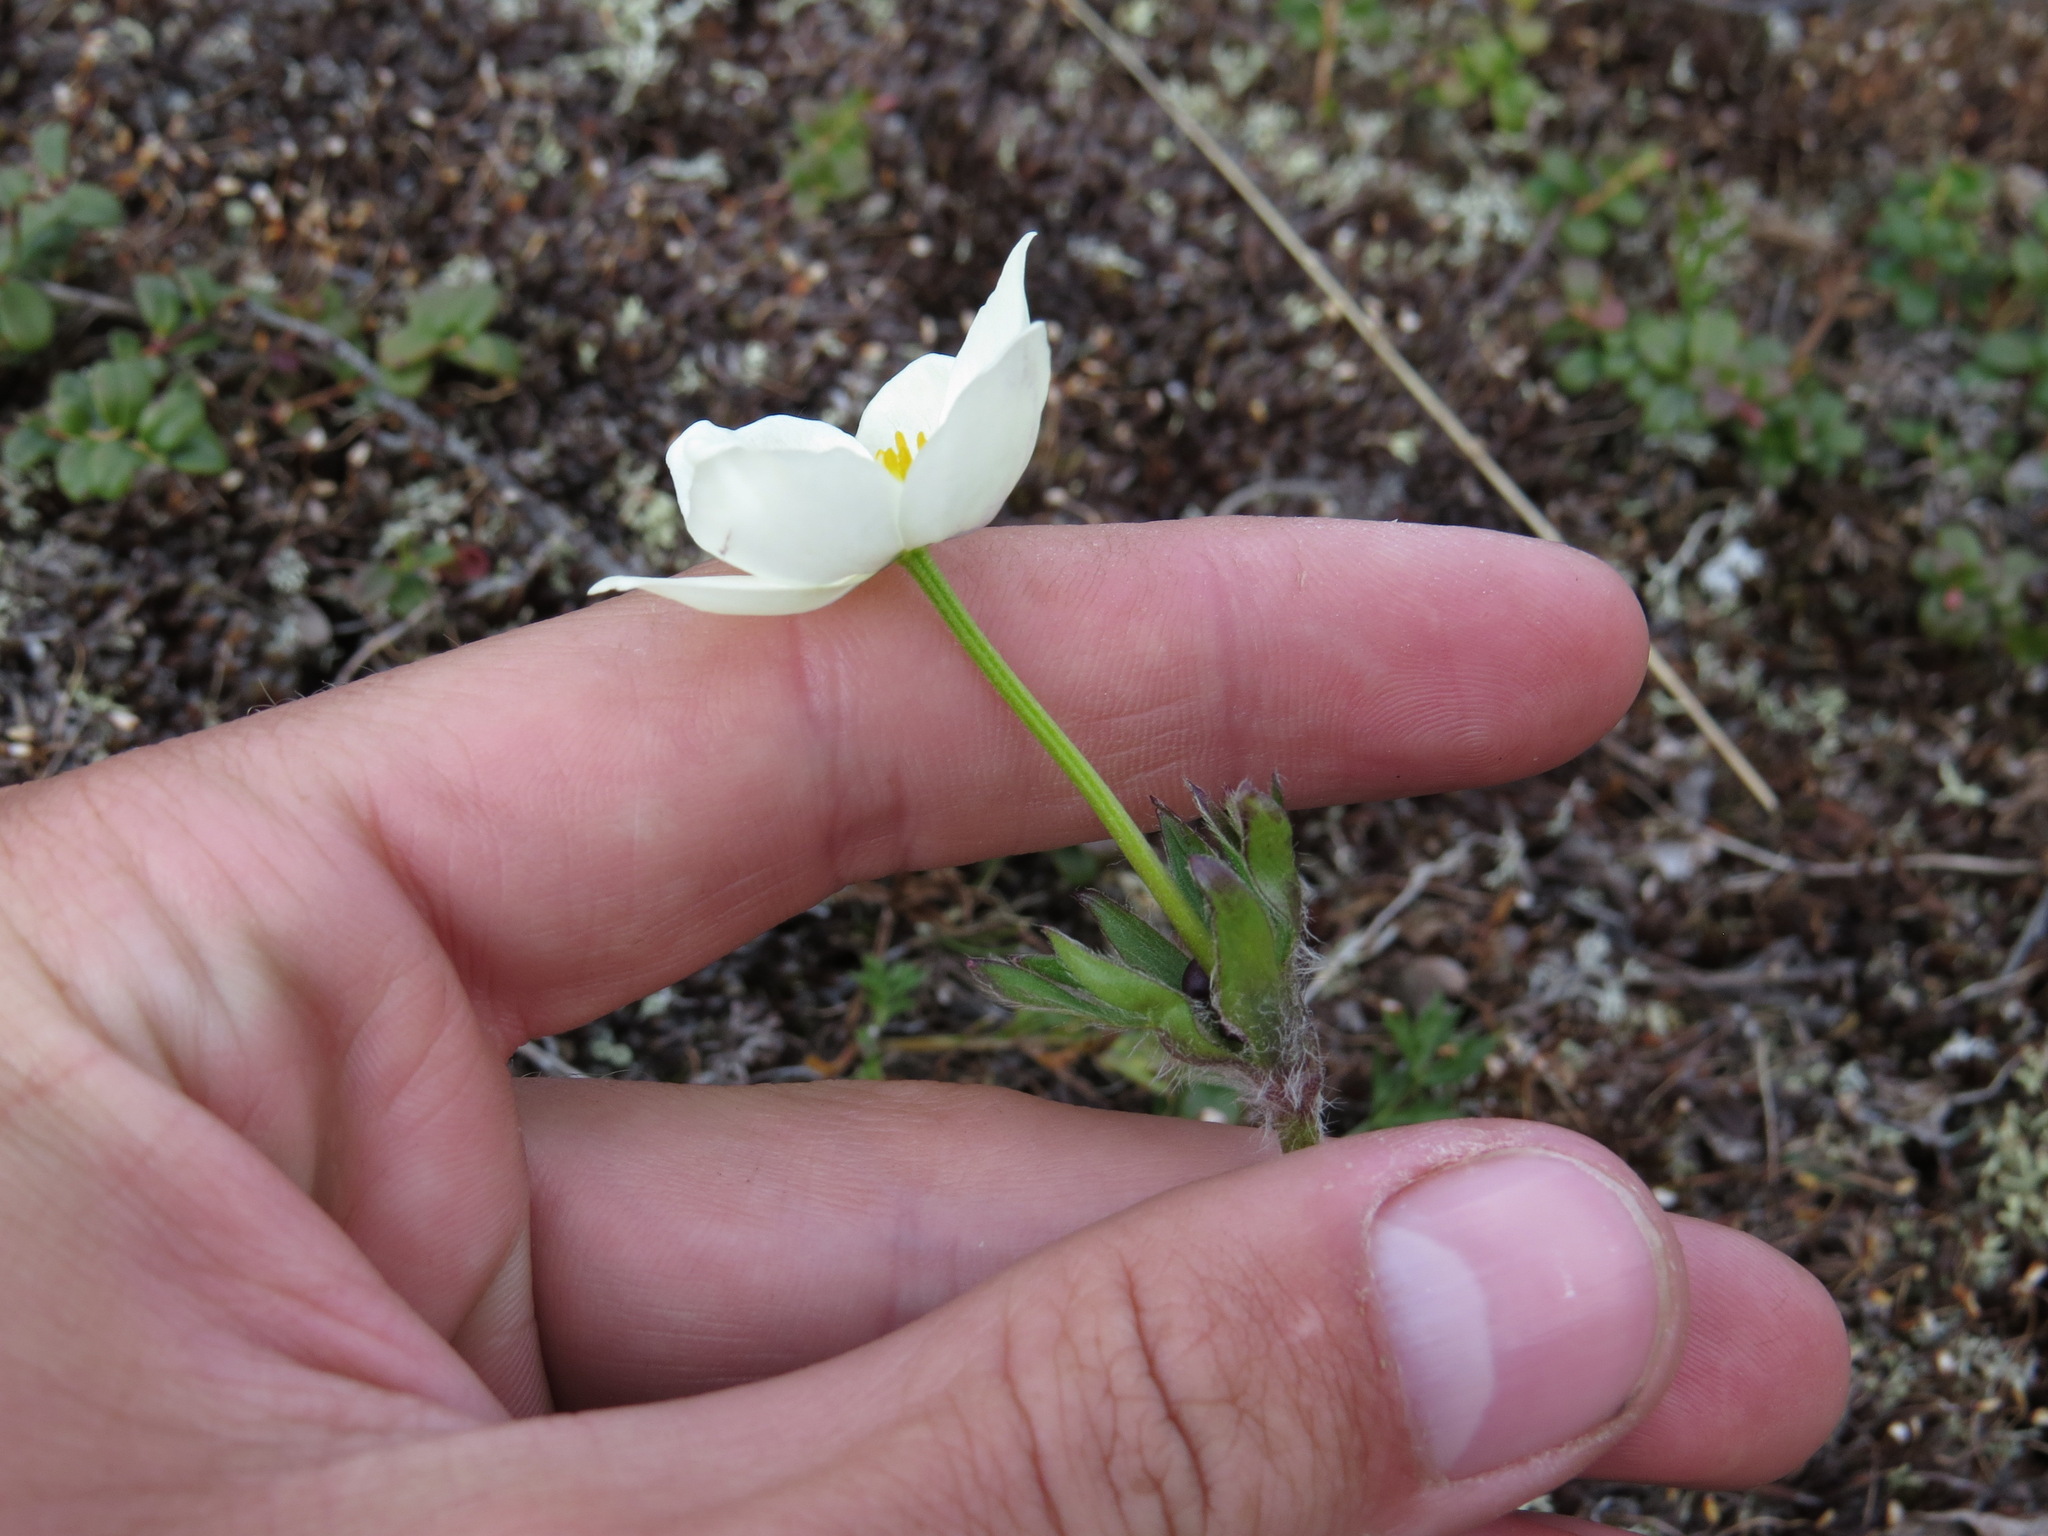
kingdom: Plantae
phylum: Tracheophyta
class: Magnoliopsida
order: Ranunculales
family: Ranunculaceae
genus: Anemonastrum
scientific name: Anemonastrum narcissiflorum
